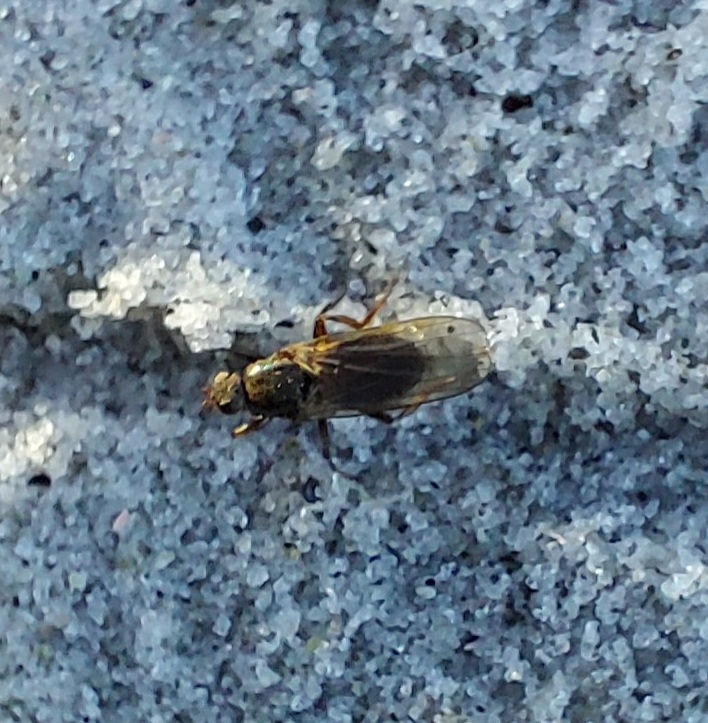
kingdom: Animalia
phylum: Arthropoda
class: Insecta
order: Diptera
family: Coelopidae
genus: Coelopa
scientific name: Coelopa frigida
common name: Kelp fly
